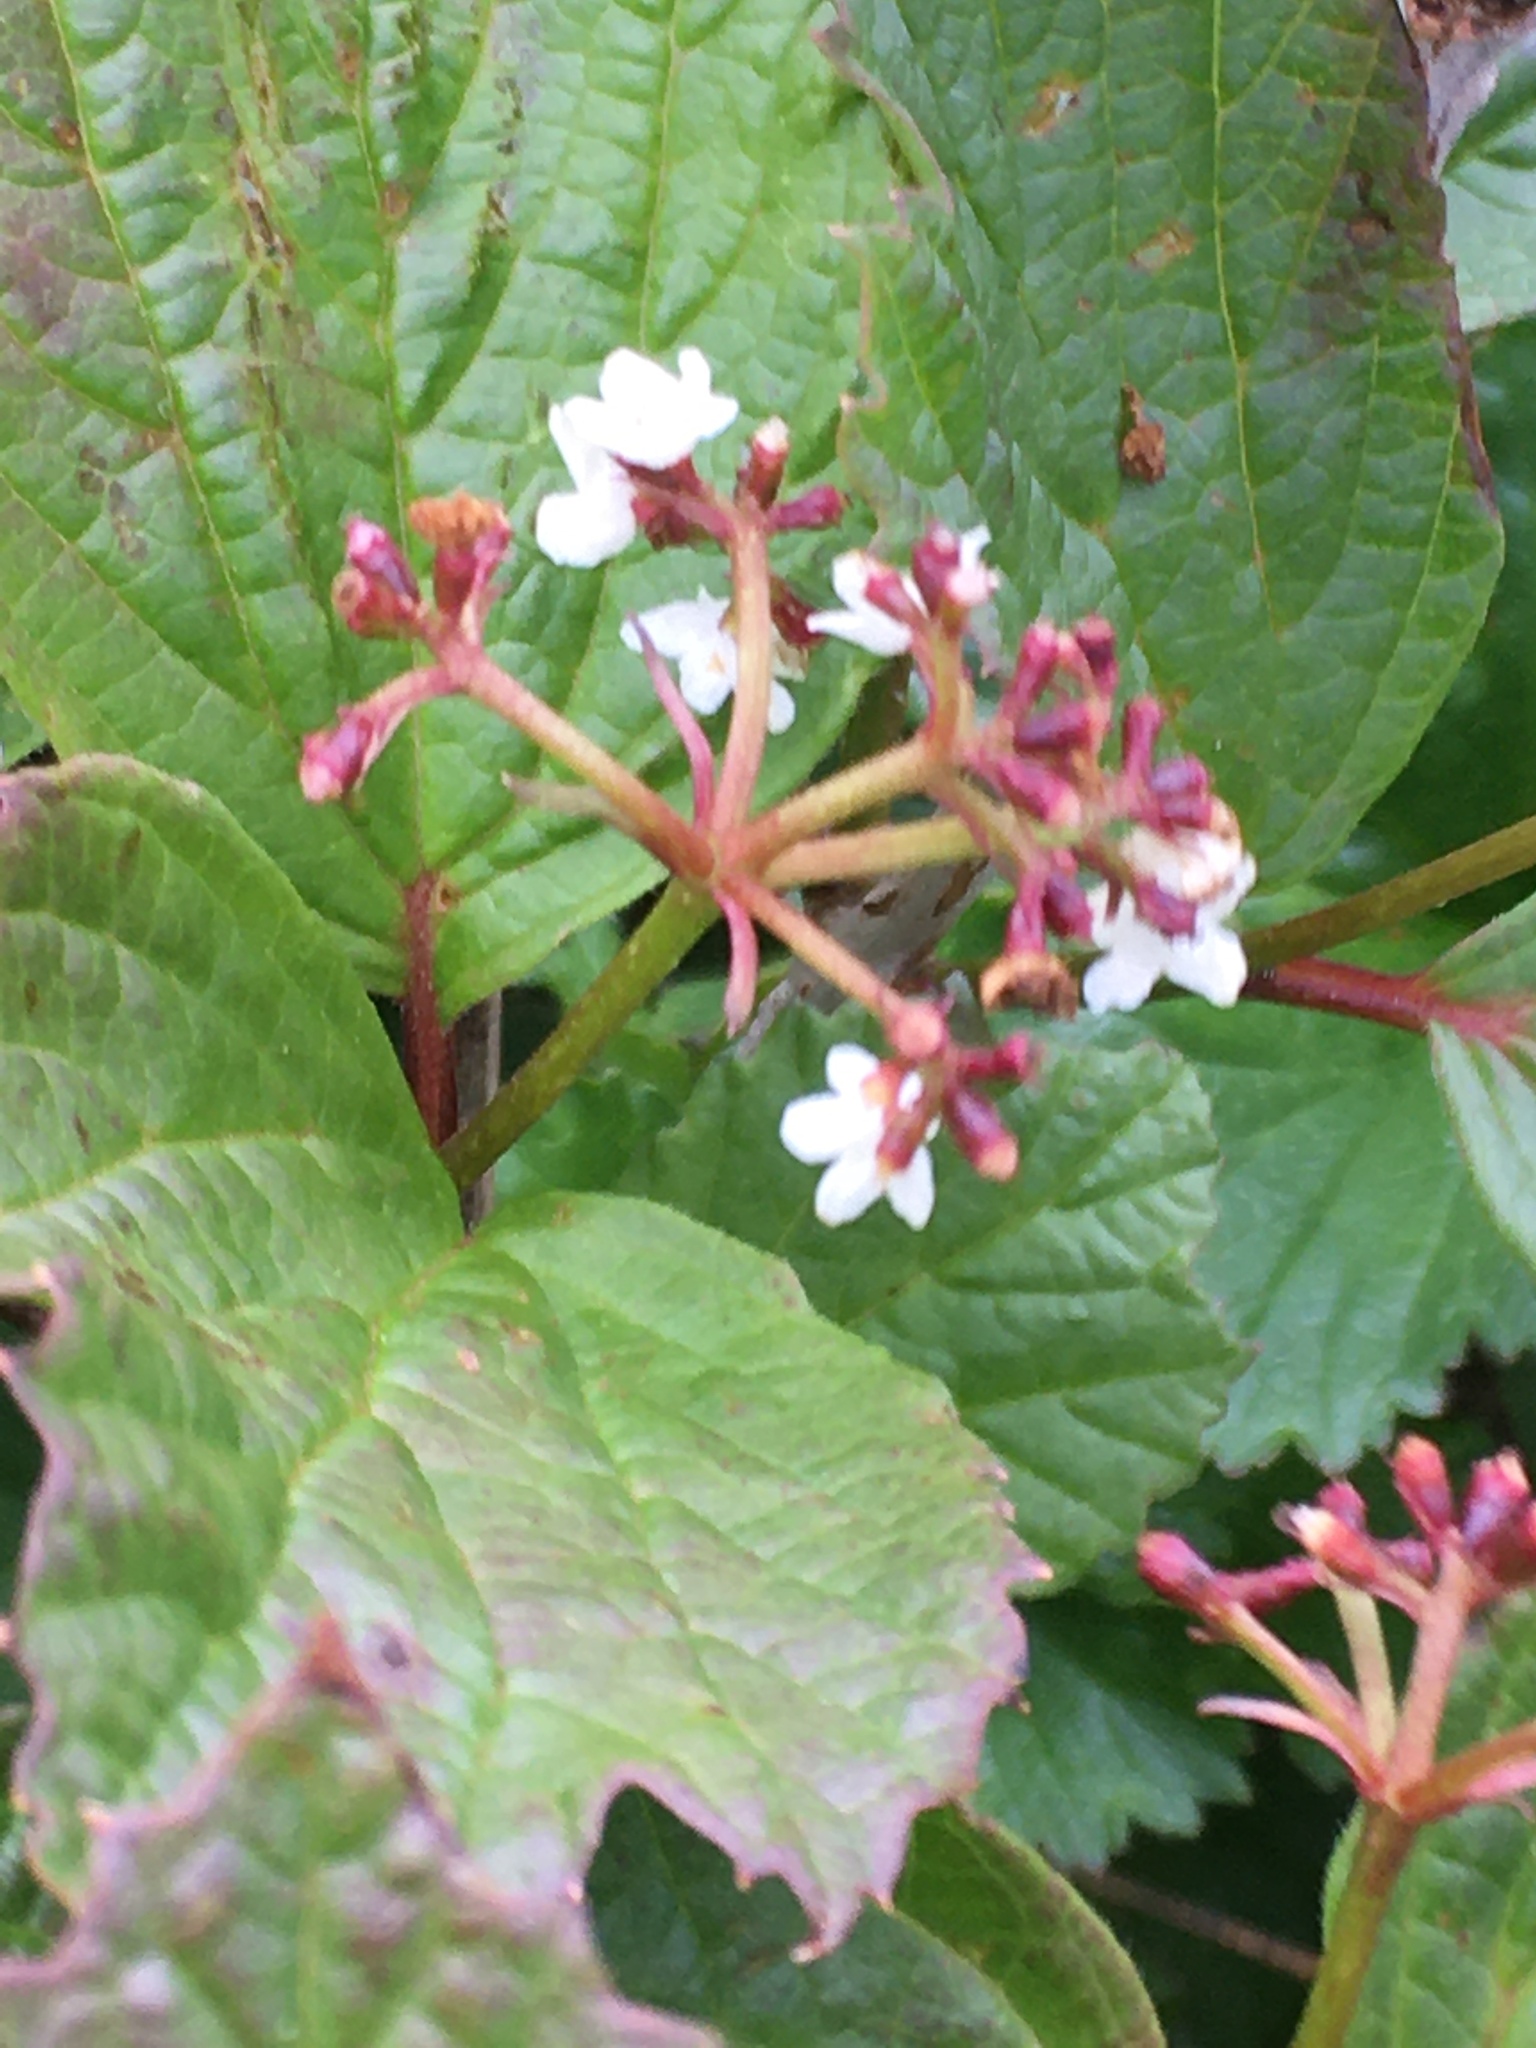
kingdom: Plantae
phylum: Tracheophyta
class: Magnoliopsida
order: Dipsacales
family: Viburnaceae
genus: Viburnum
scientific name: Viburnum edule
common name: Mooseberry
